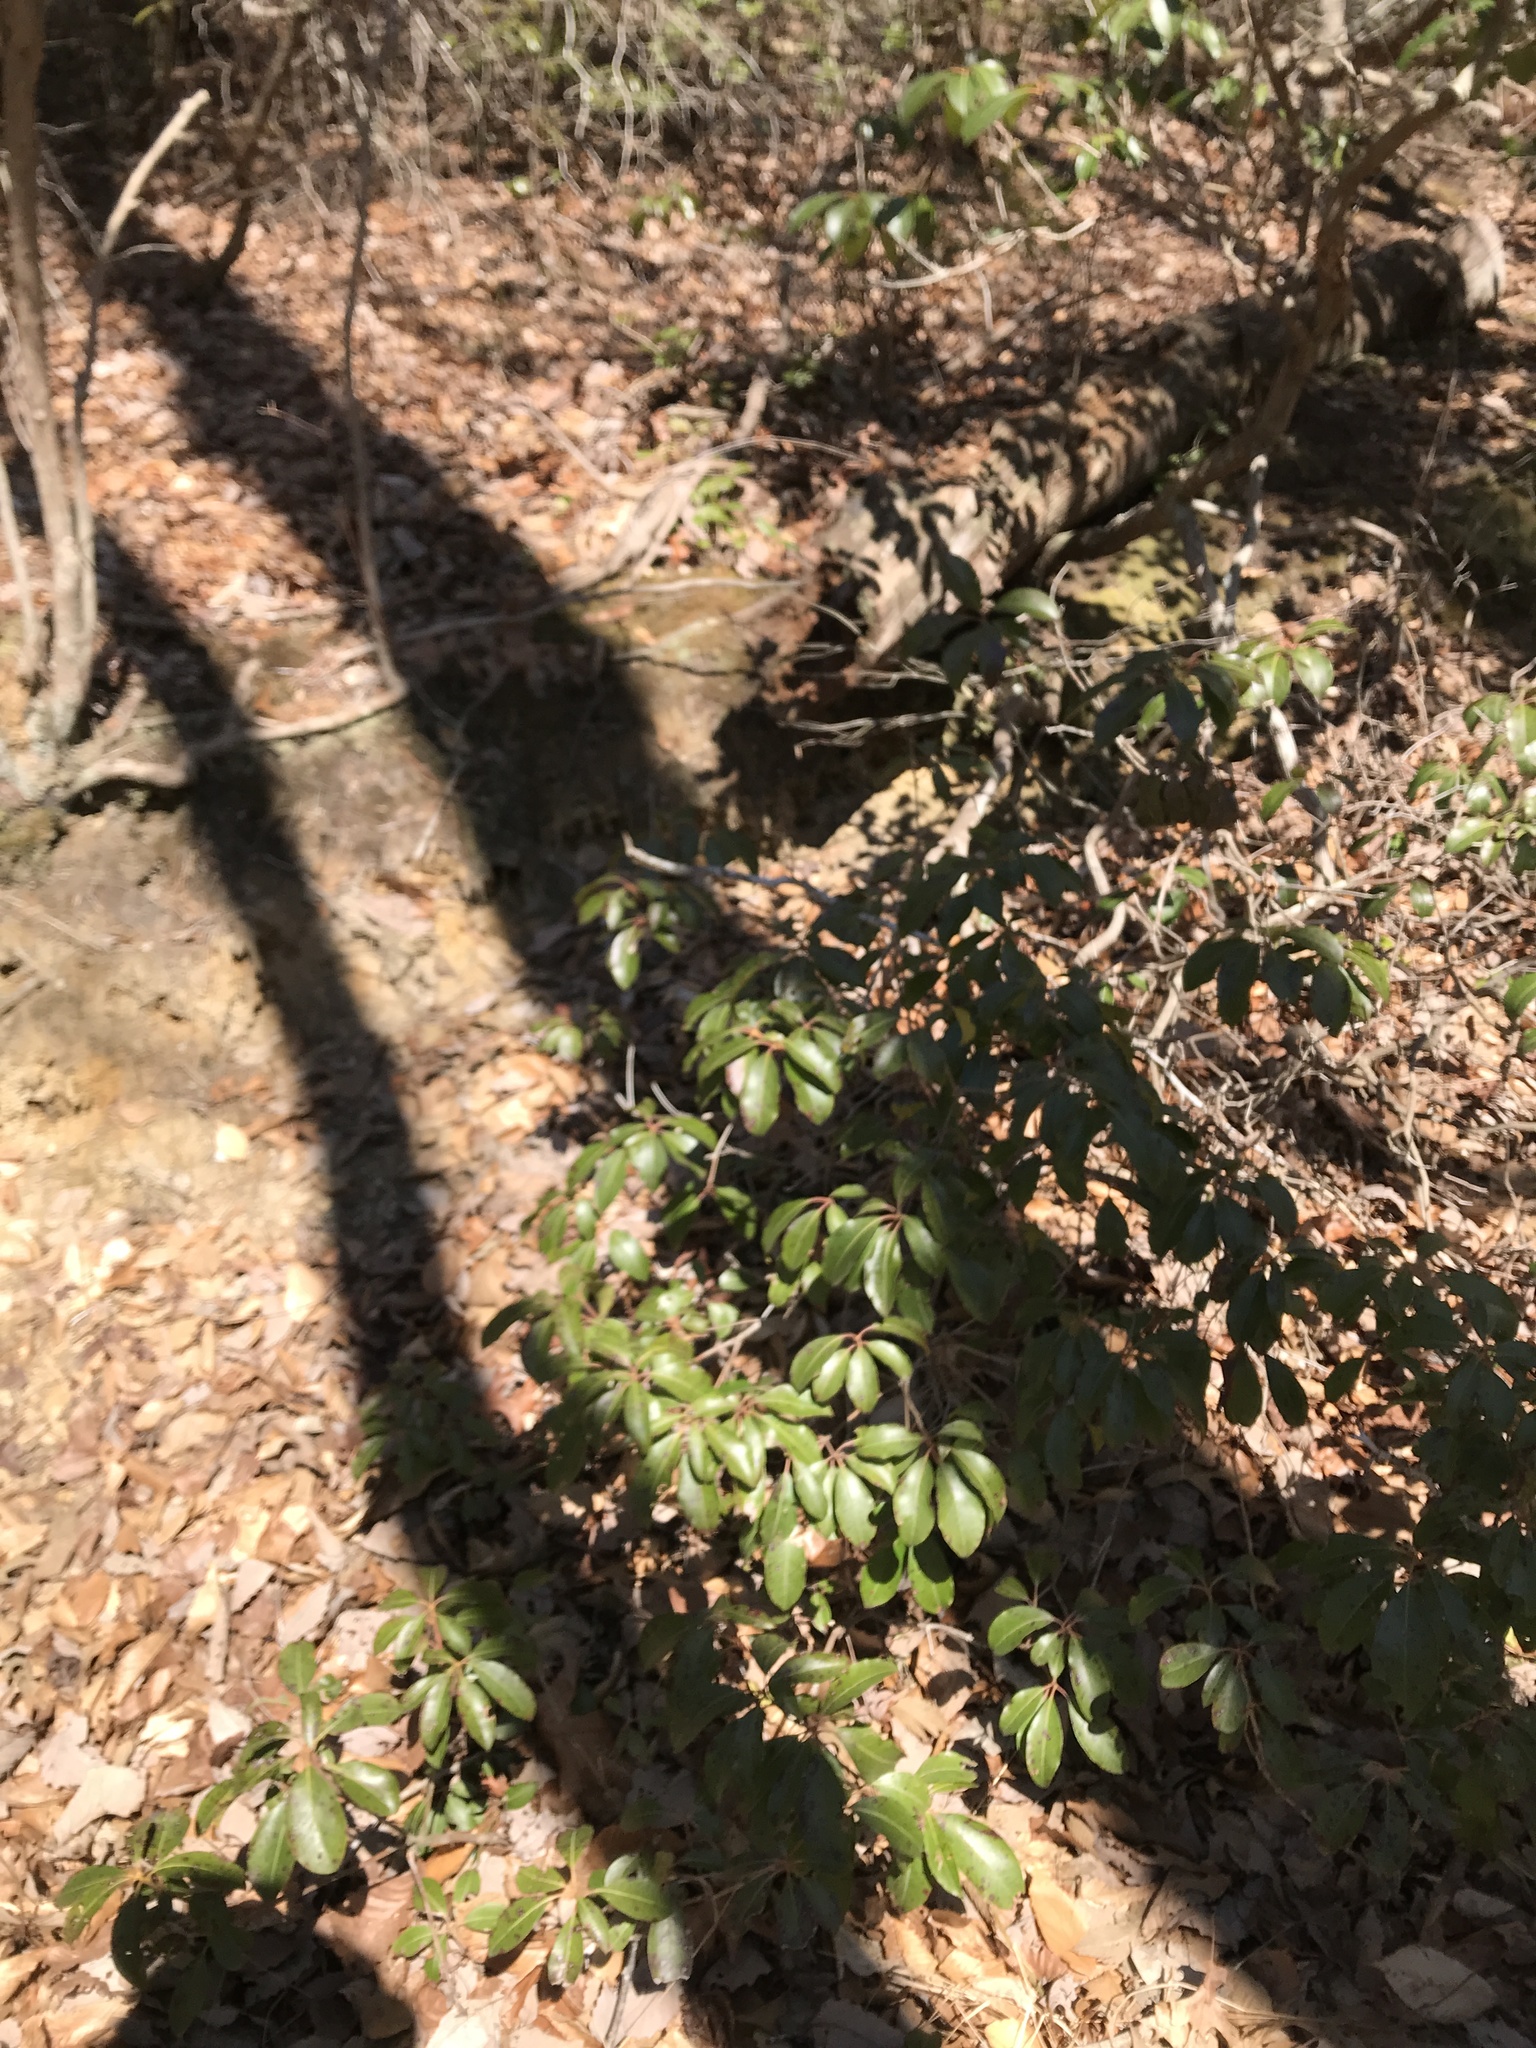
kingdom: Plantae
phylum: Tracheophyta
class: Magnoliopsida
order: Ericales
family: Ericaceae
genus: Kalmia
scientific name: Kalmia latifolia
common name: Mountain-laurel
